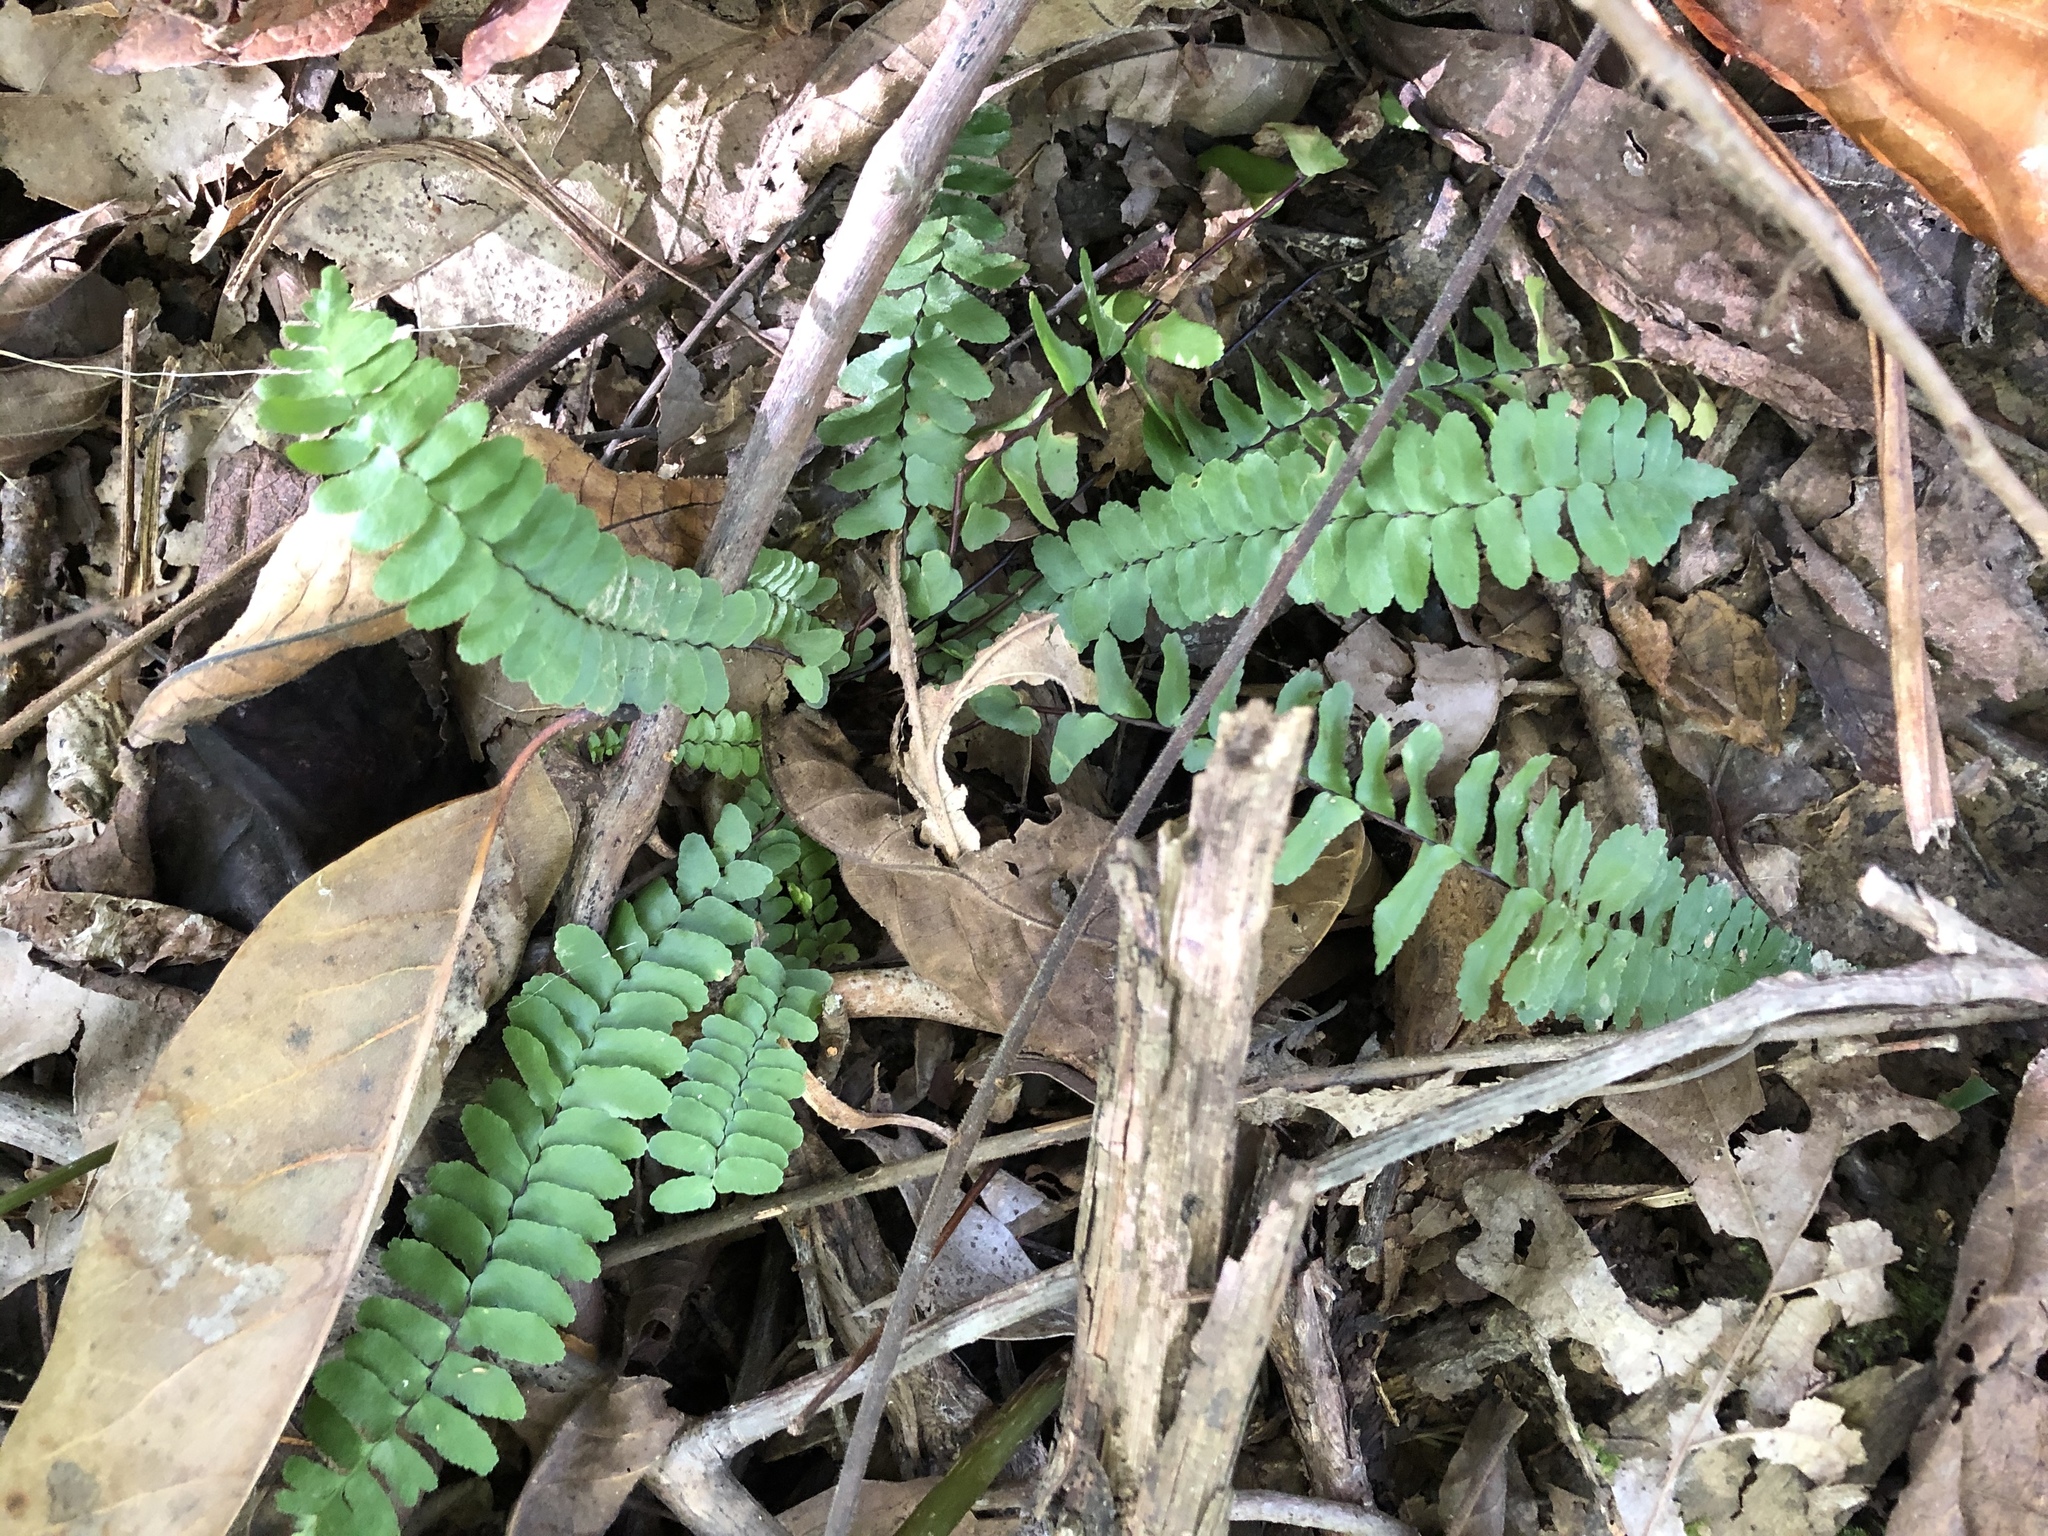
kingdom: Plantae
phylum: Tracheophyta
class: Polypodiopsida
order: Polypodiales
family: Aspleniaceae
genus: Asplenium
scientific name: Asplenium platyneuron
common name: Ebony spleenwort
